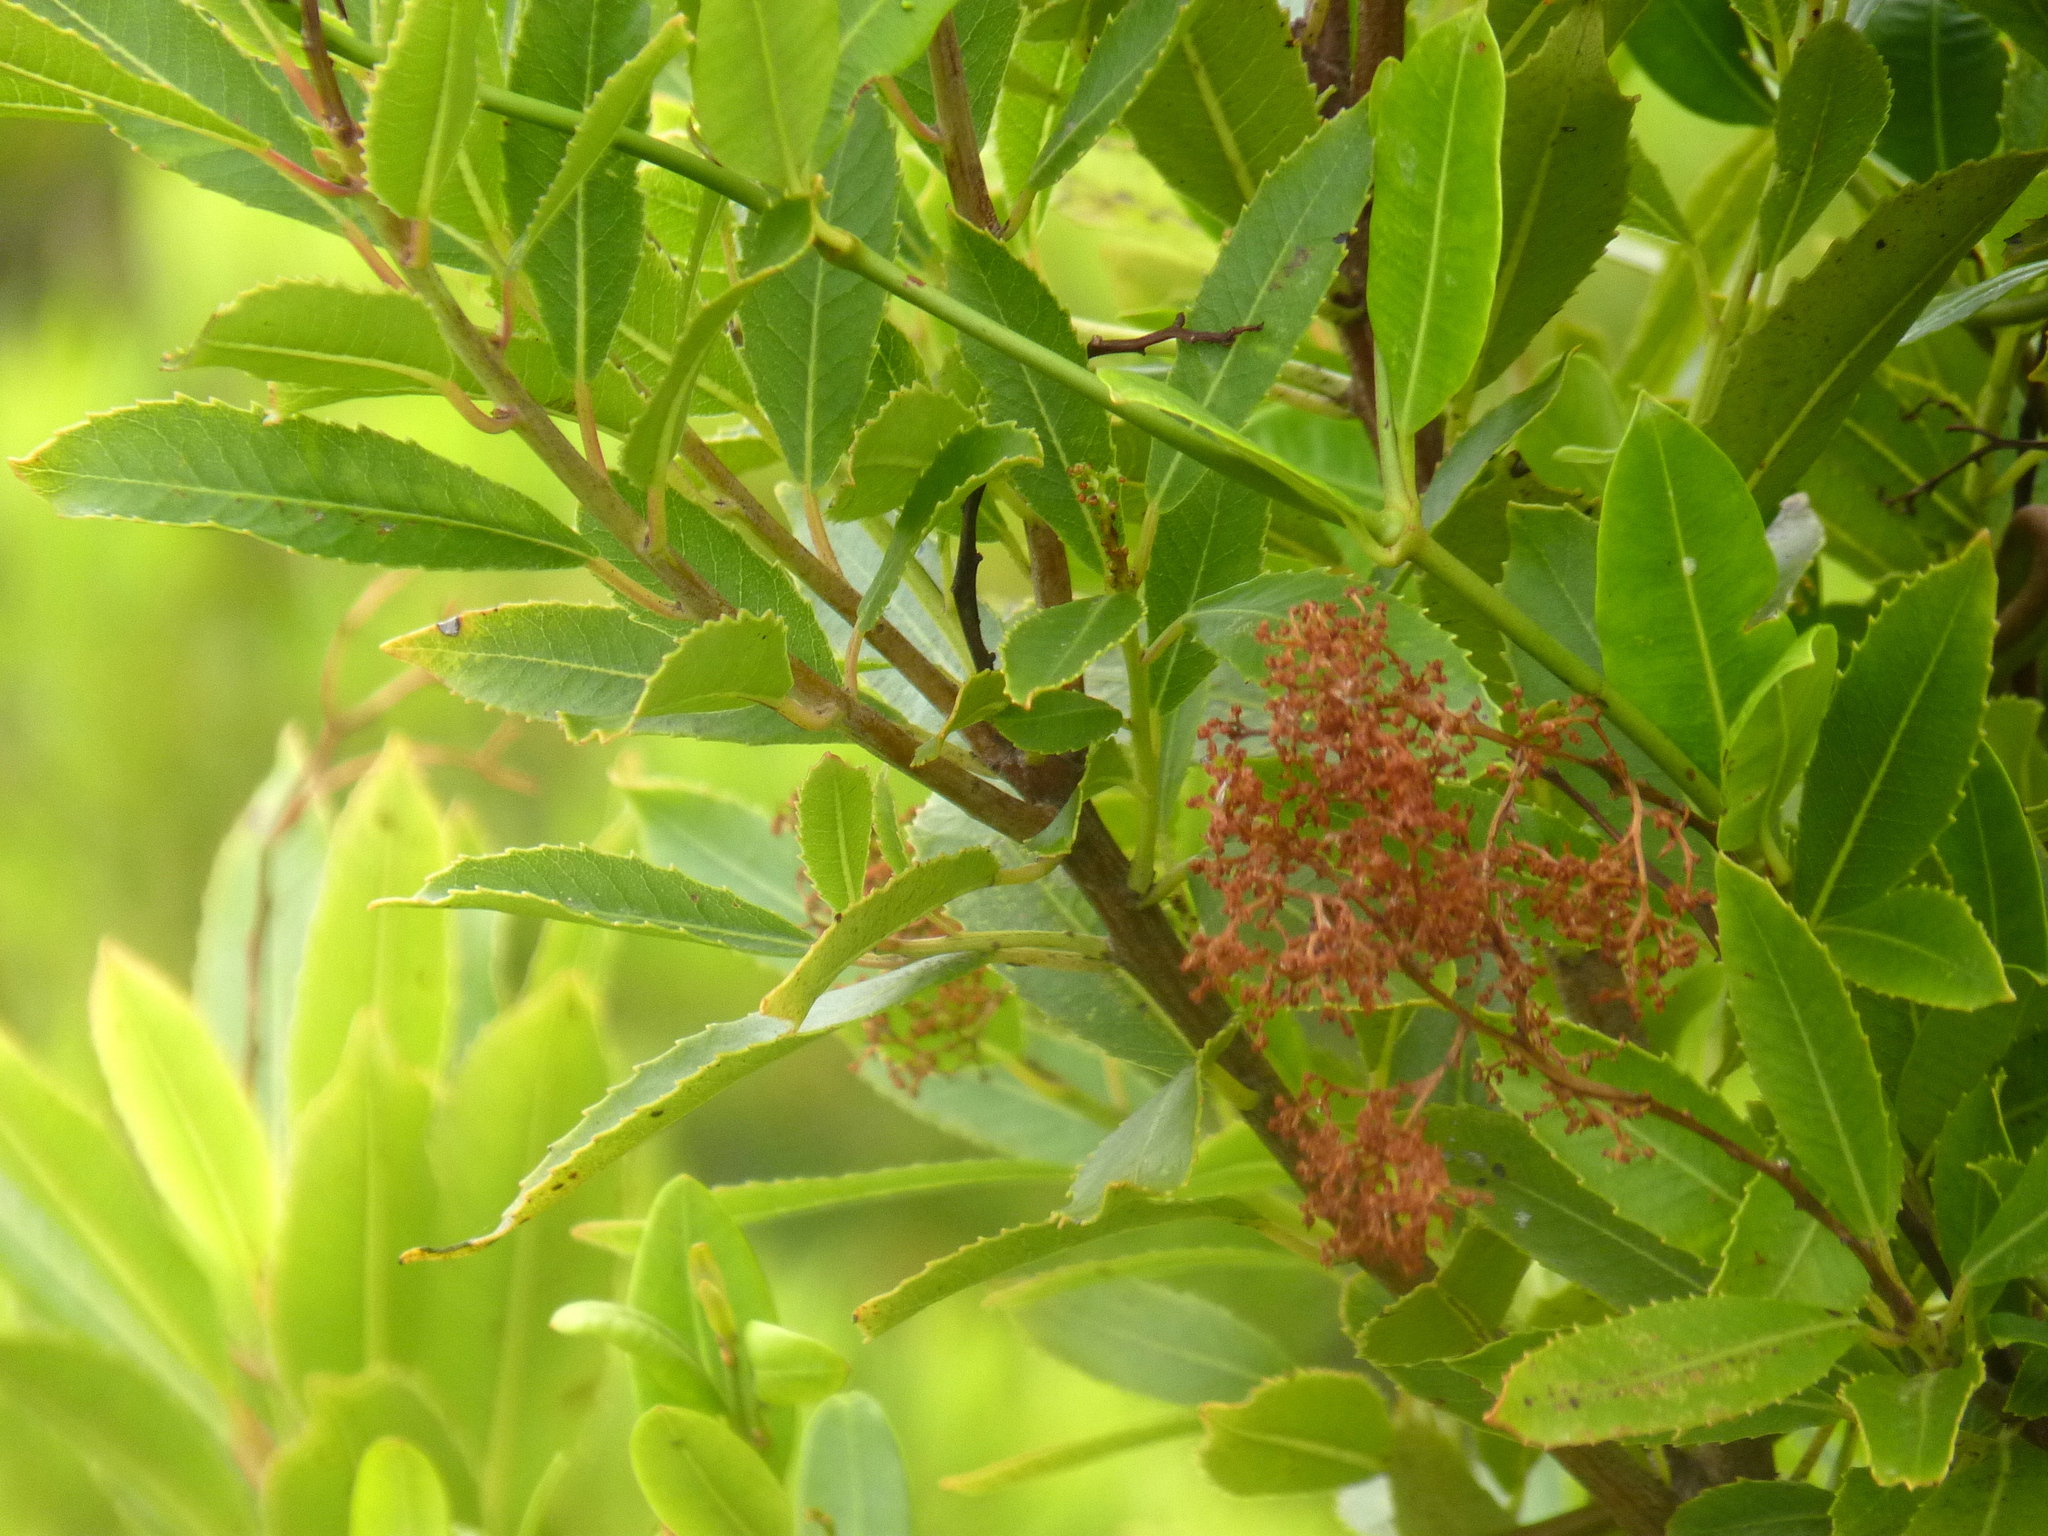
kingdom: Plantae
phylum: Tracheophyta
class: Magnoliopsida
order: Sapindales
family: Anacardiaceae
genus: Laurophyllus
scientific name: Laurophyllus capensis
